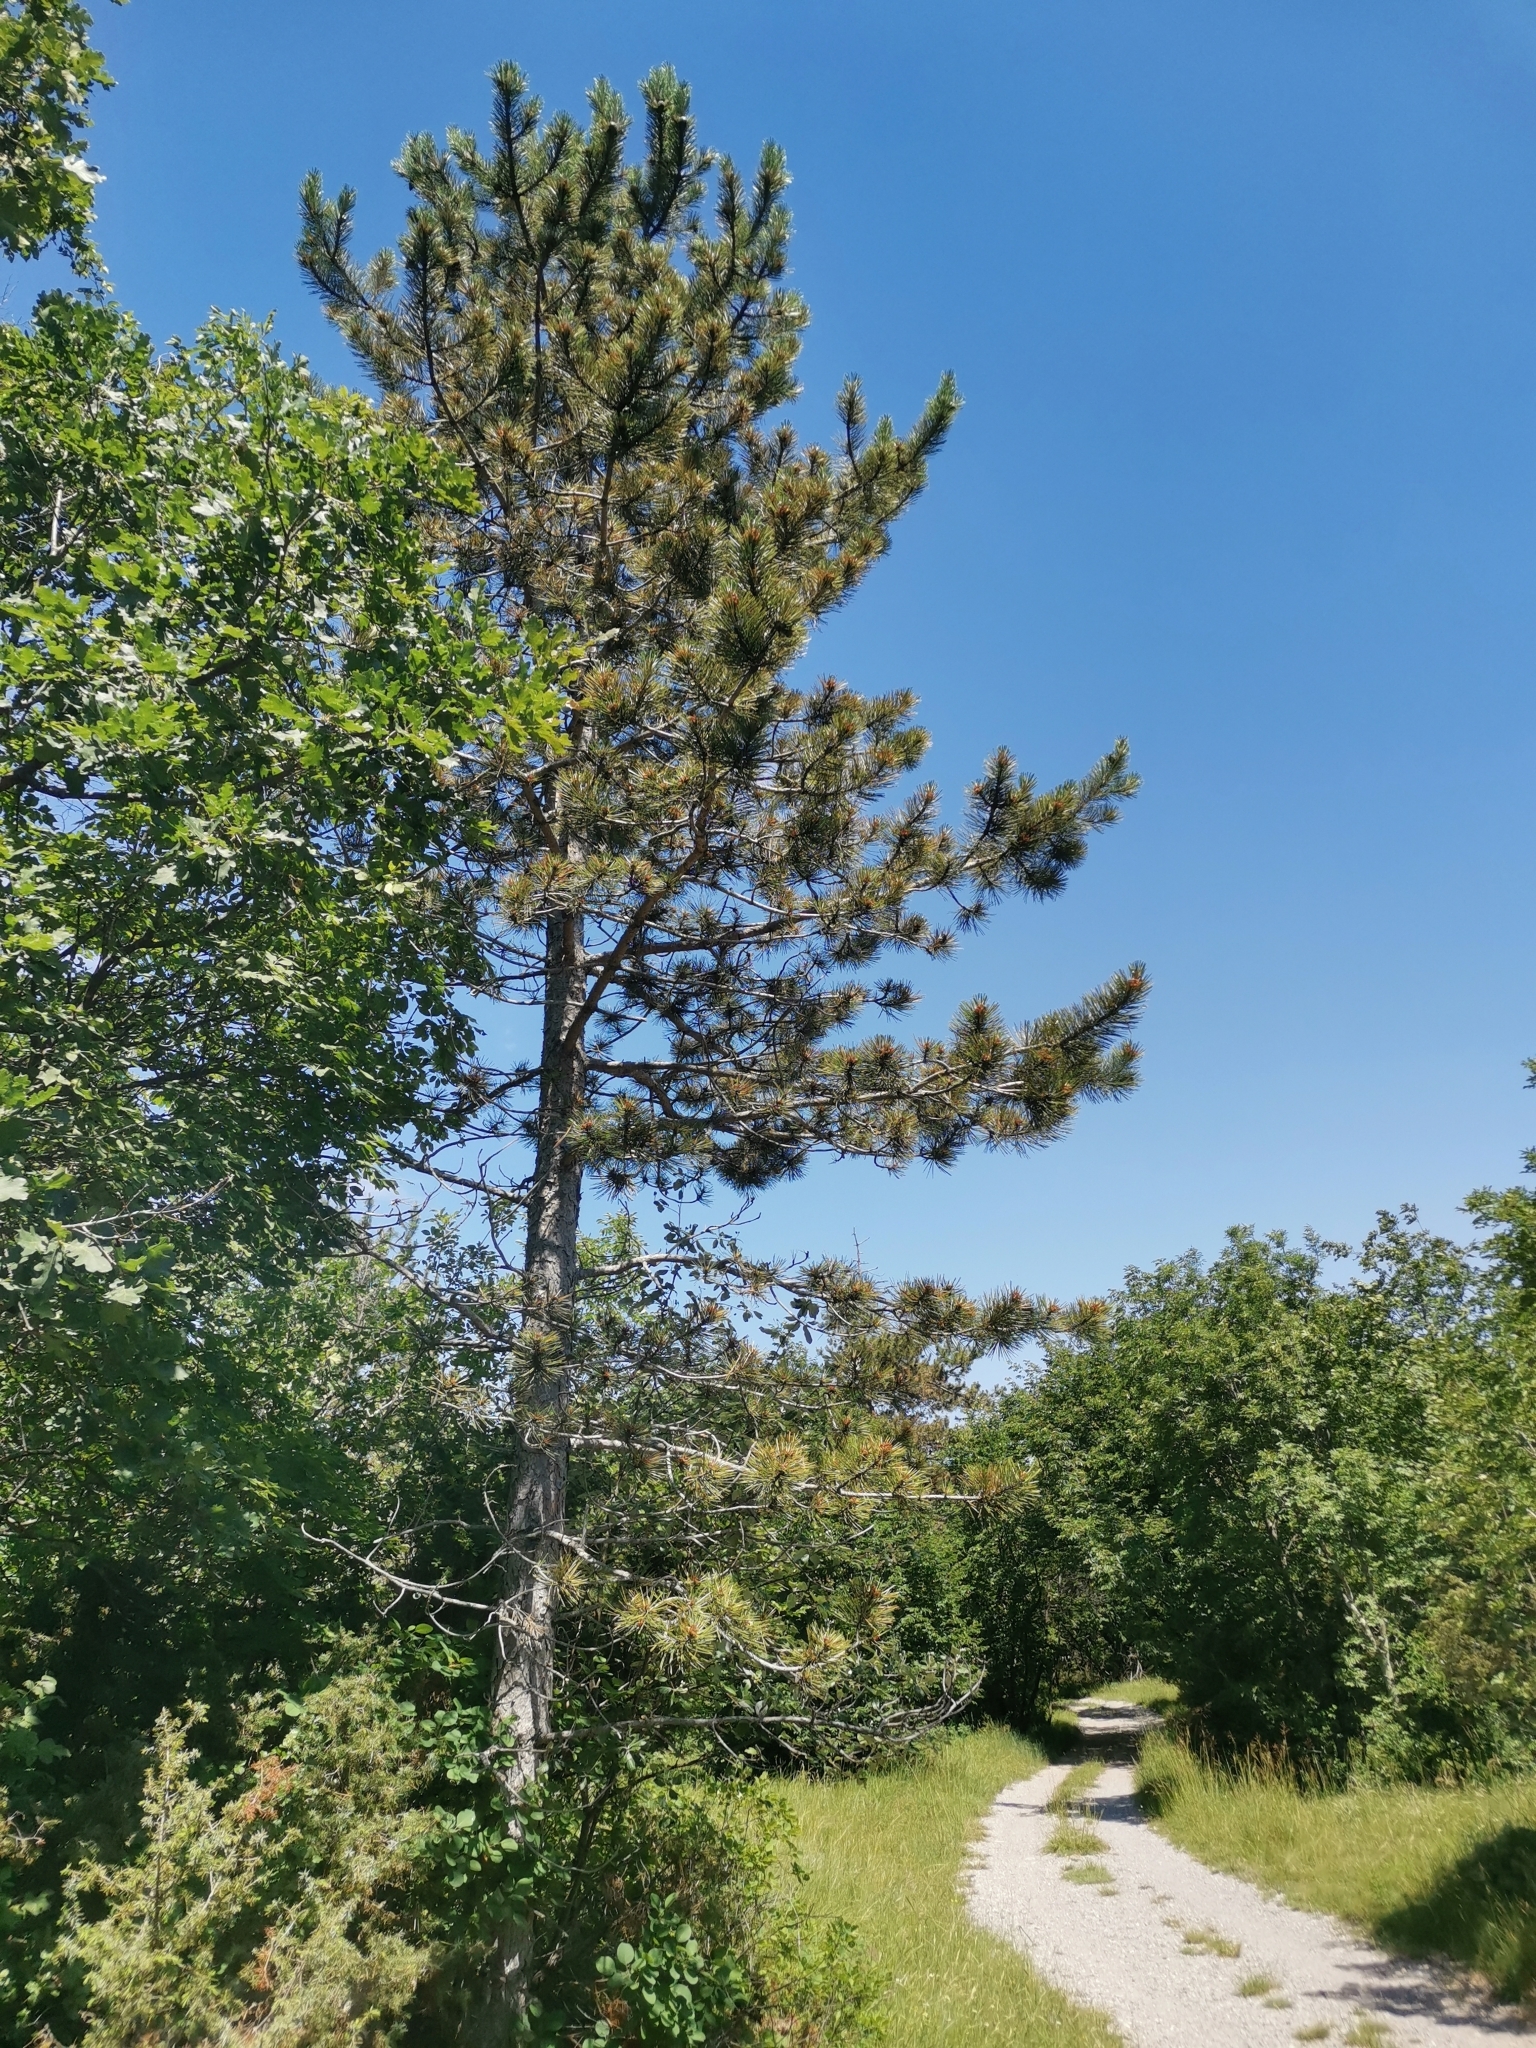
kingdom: Plantae
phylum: Tracheophyta
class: Pinopsida
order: Pinales
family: Pinaceae
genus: Pinus
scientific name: Pinus nigra
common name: Austrian pine
